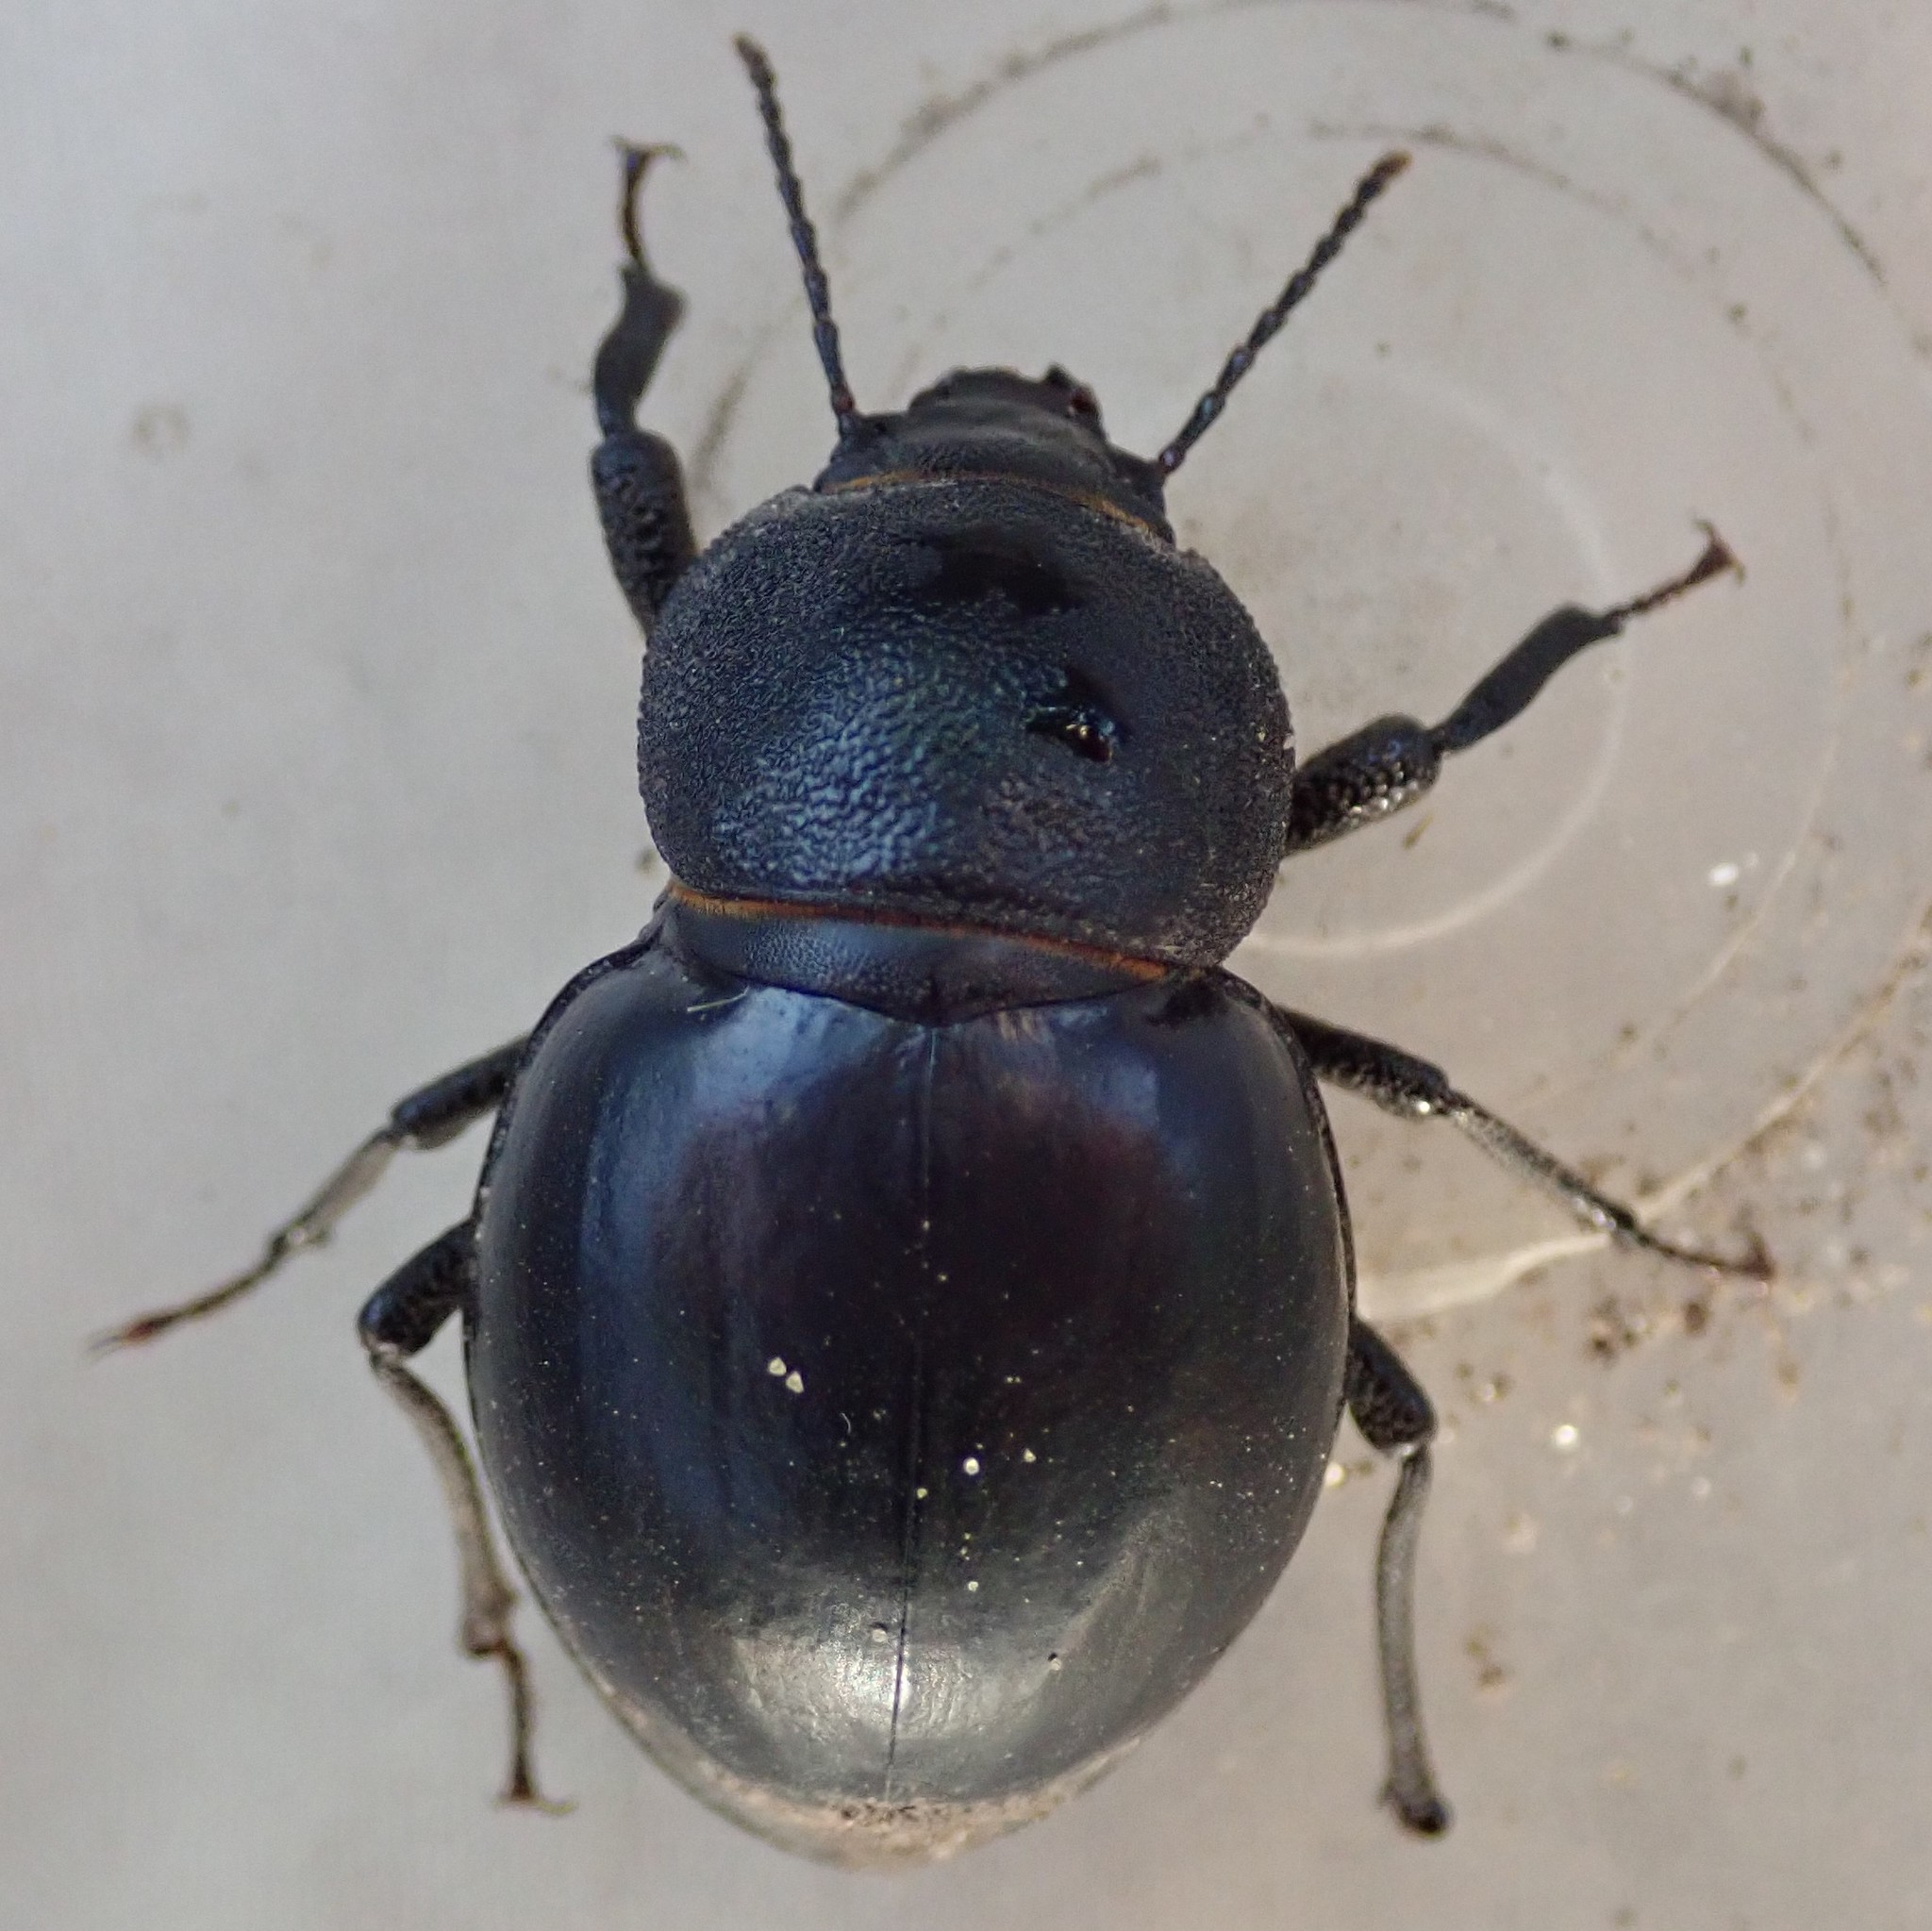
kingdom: Animalia
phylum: Arthropoda
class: Insecta
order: Coleoptera
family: Tenebrionidae
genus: Ocnodes
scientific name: Ocnodes virago
